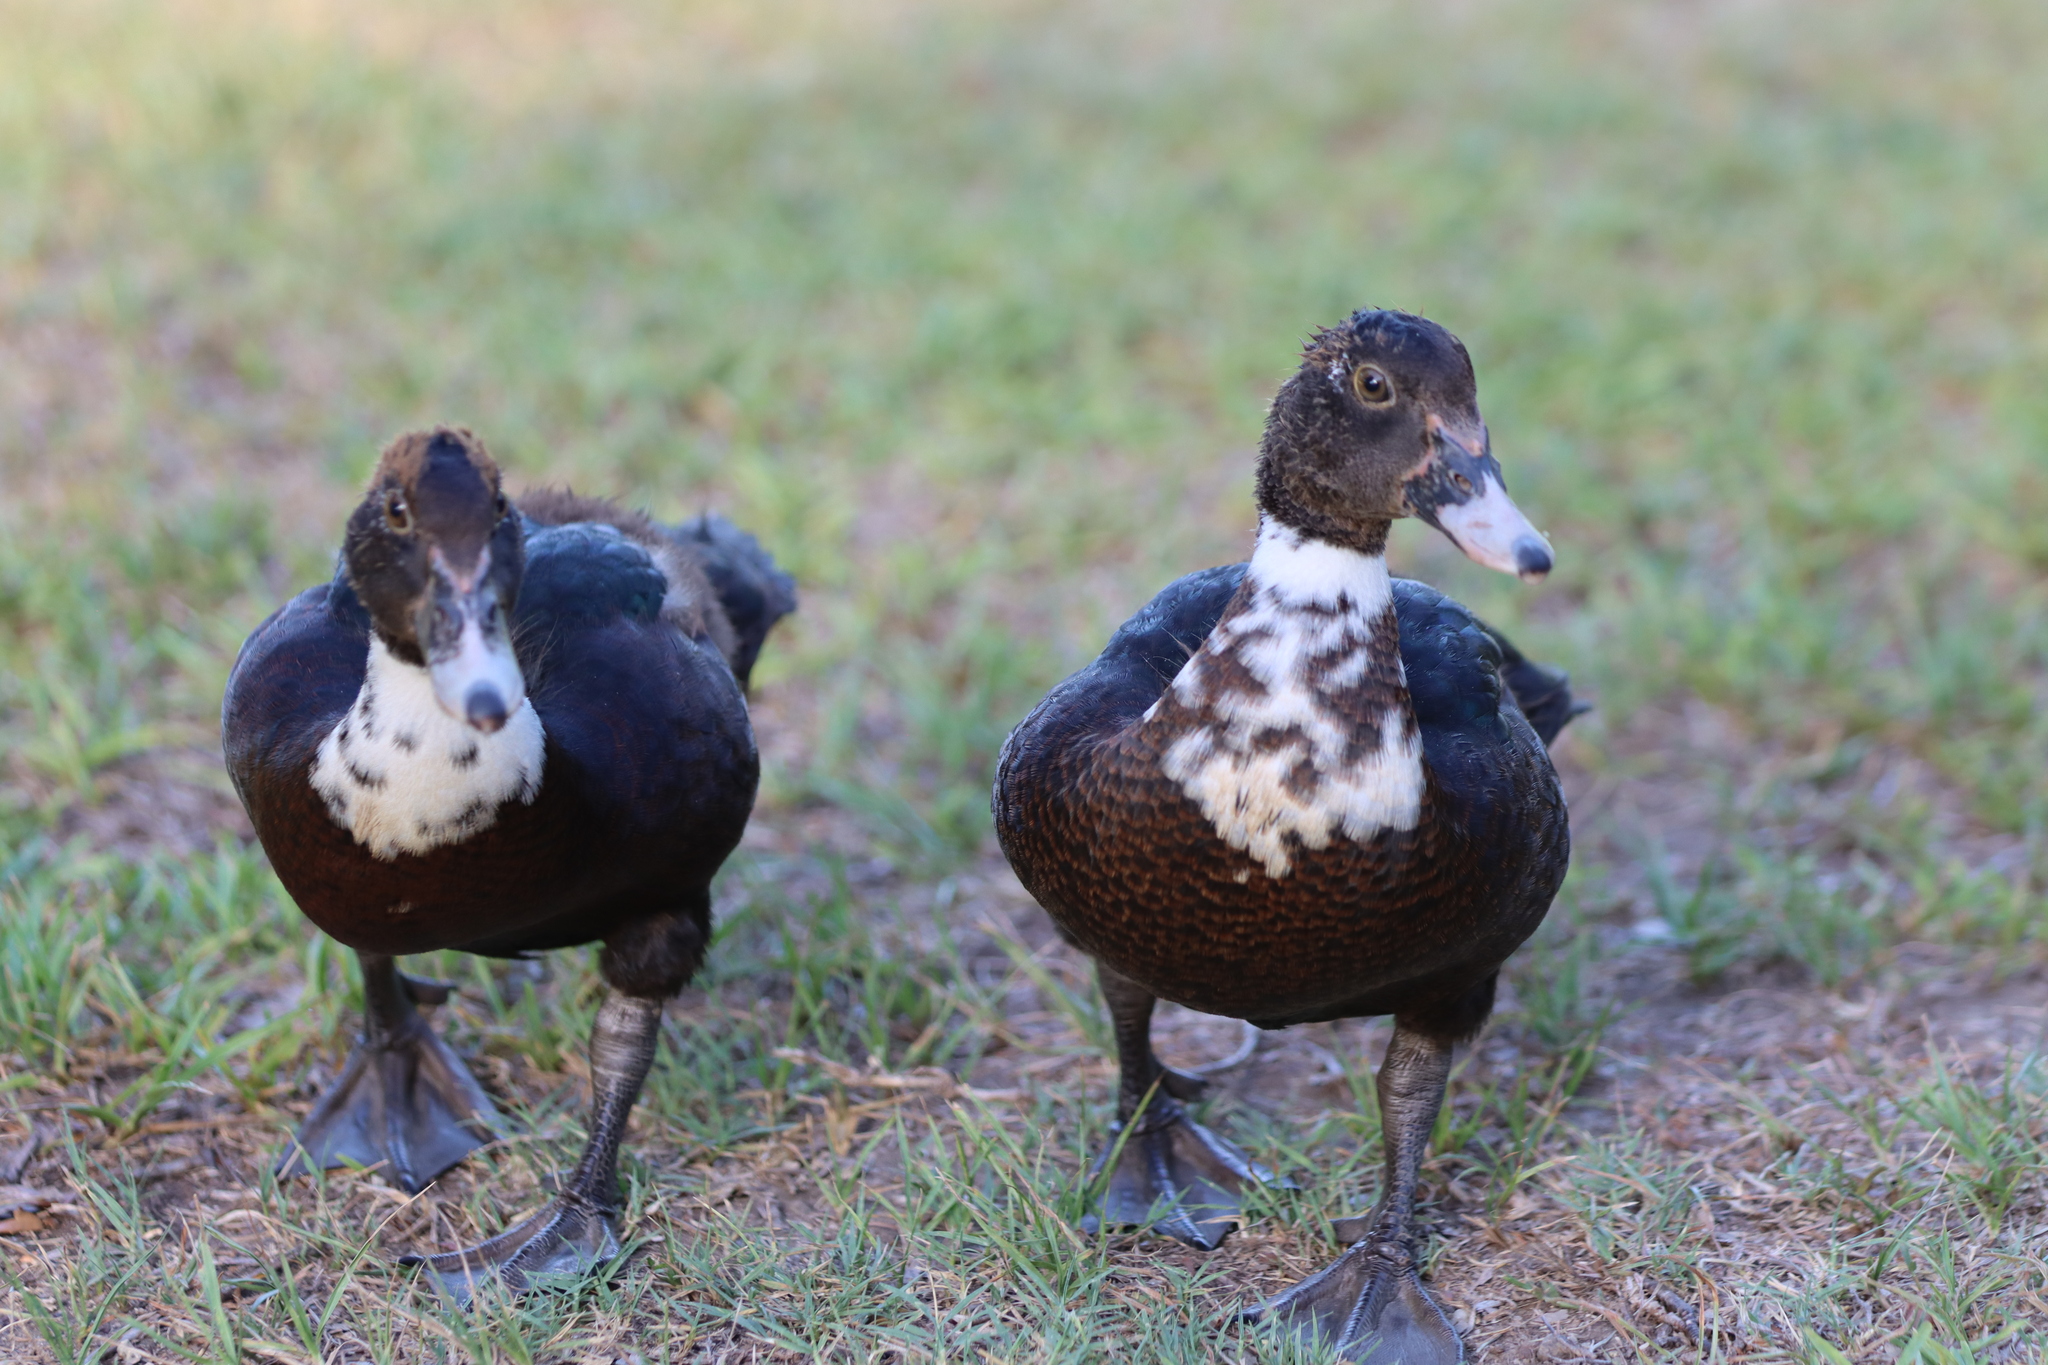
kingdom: Animalia
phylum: Chordata
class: Aves
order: Anseriformes
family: Anatidae
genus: Cairina
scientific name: Cairina moschata
